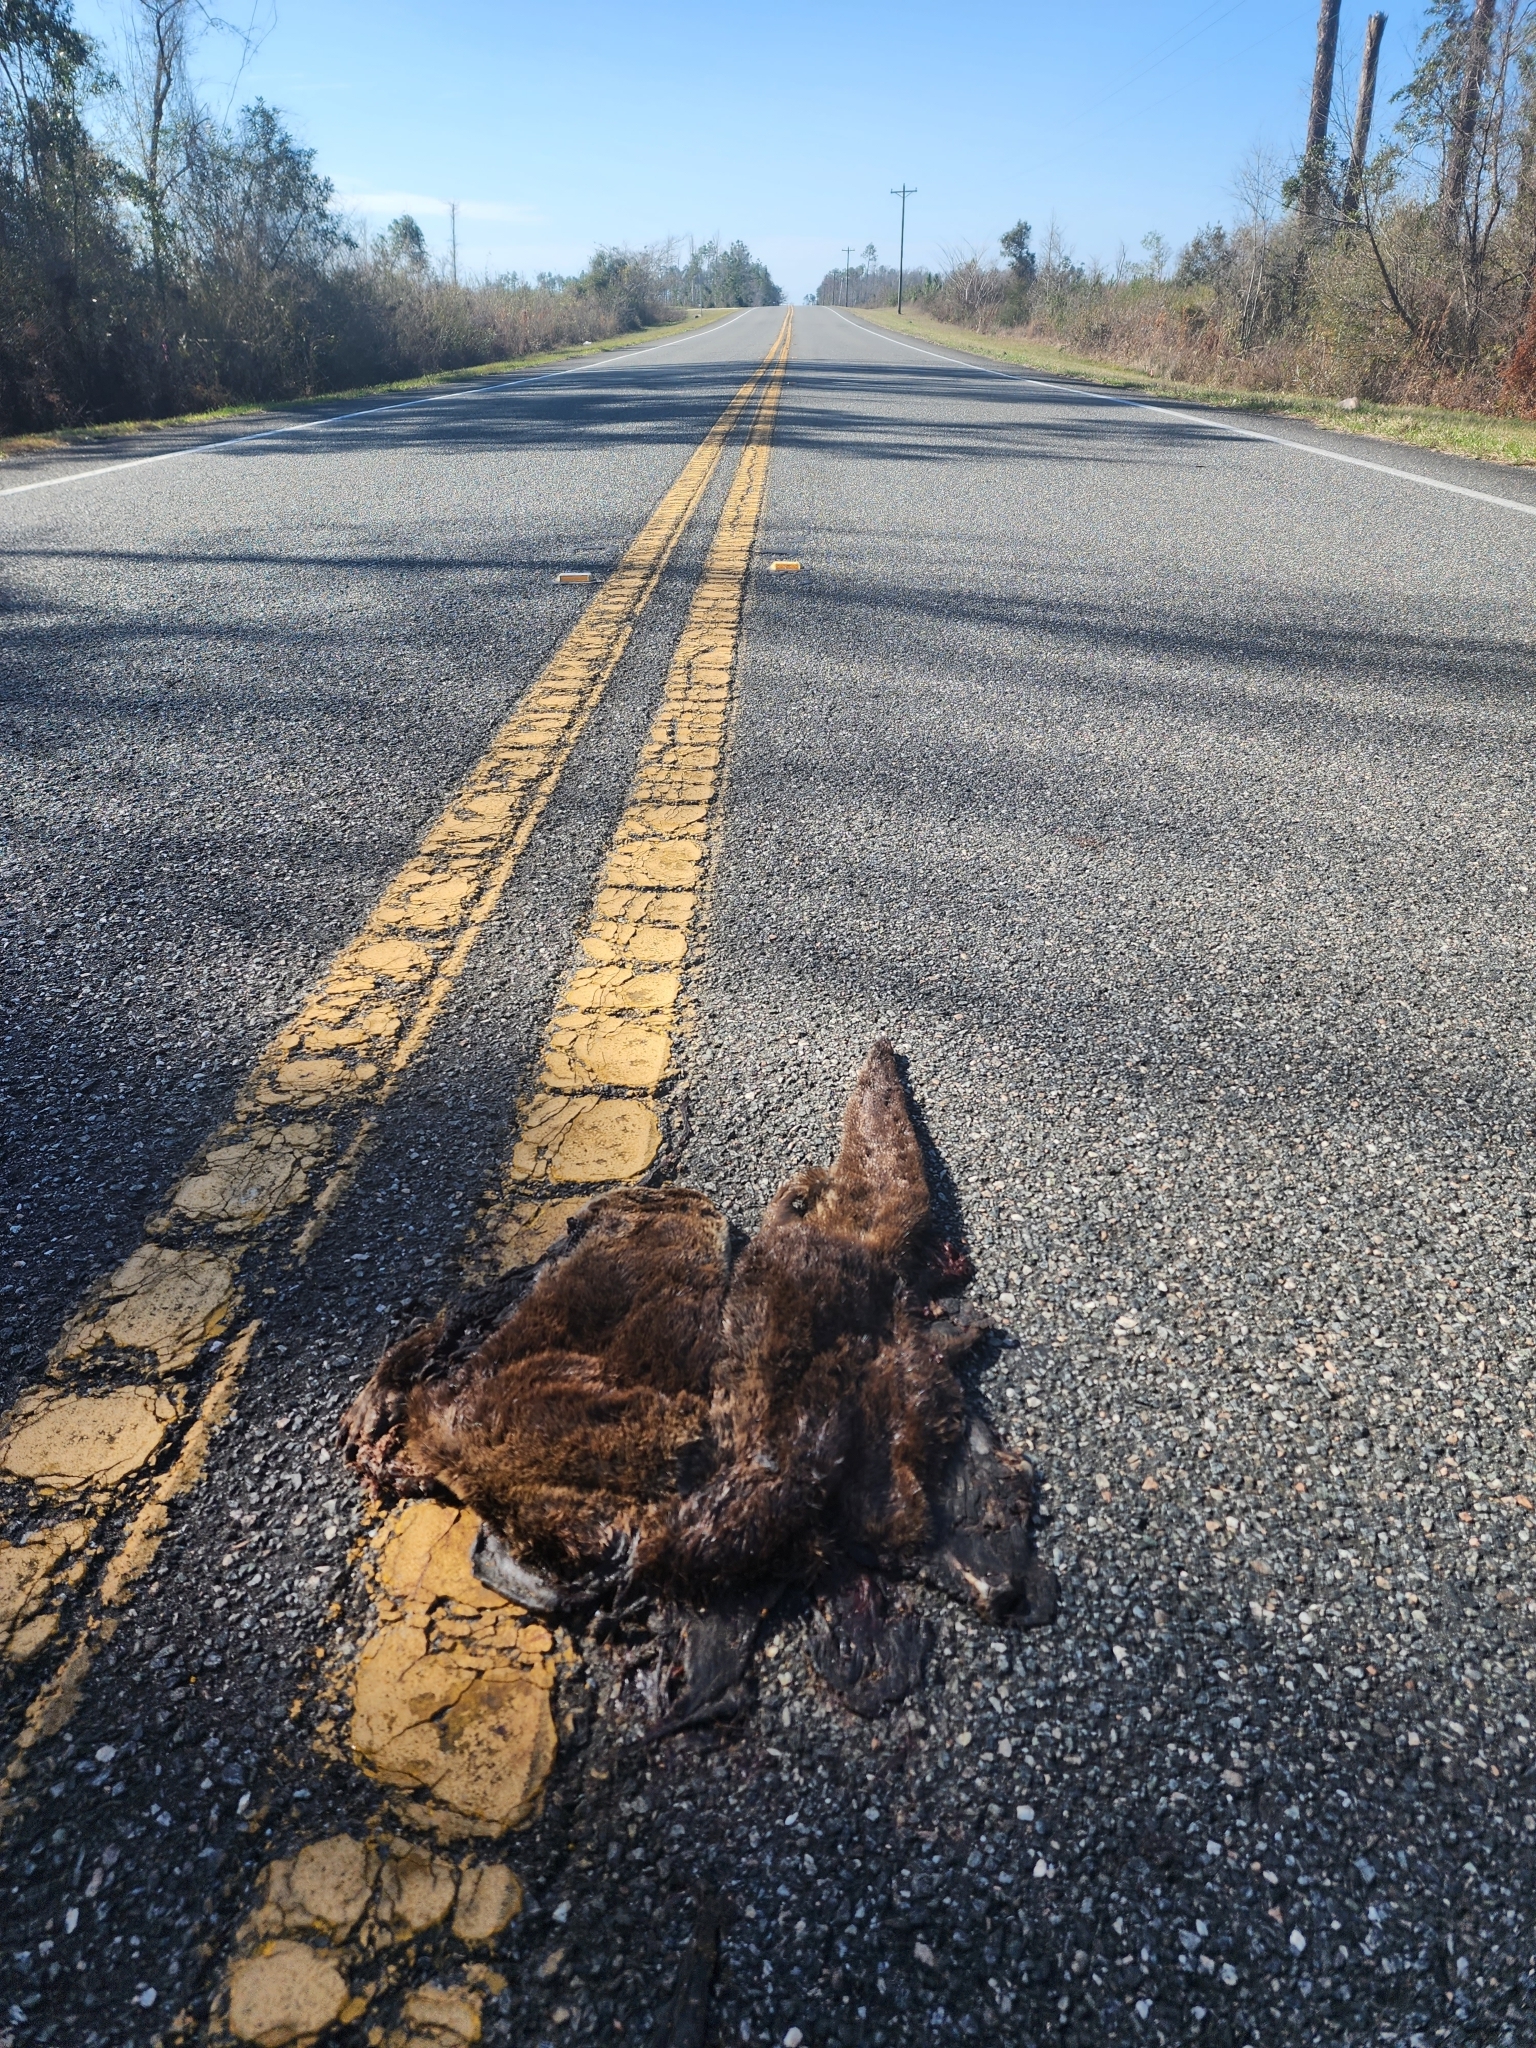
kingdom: Animalia
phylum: Chordata
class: Mammalia
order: Carnivora
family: Mustelidae
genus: Lontra
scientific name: Lontra canadensis
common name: North american river otter
